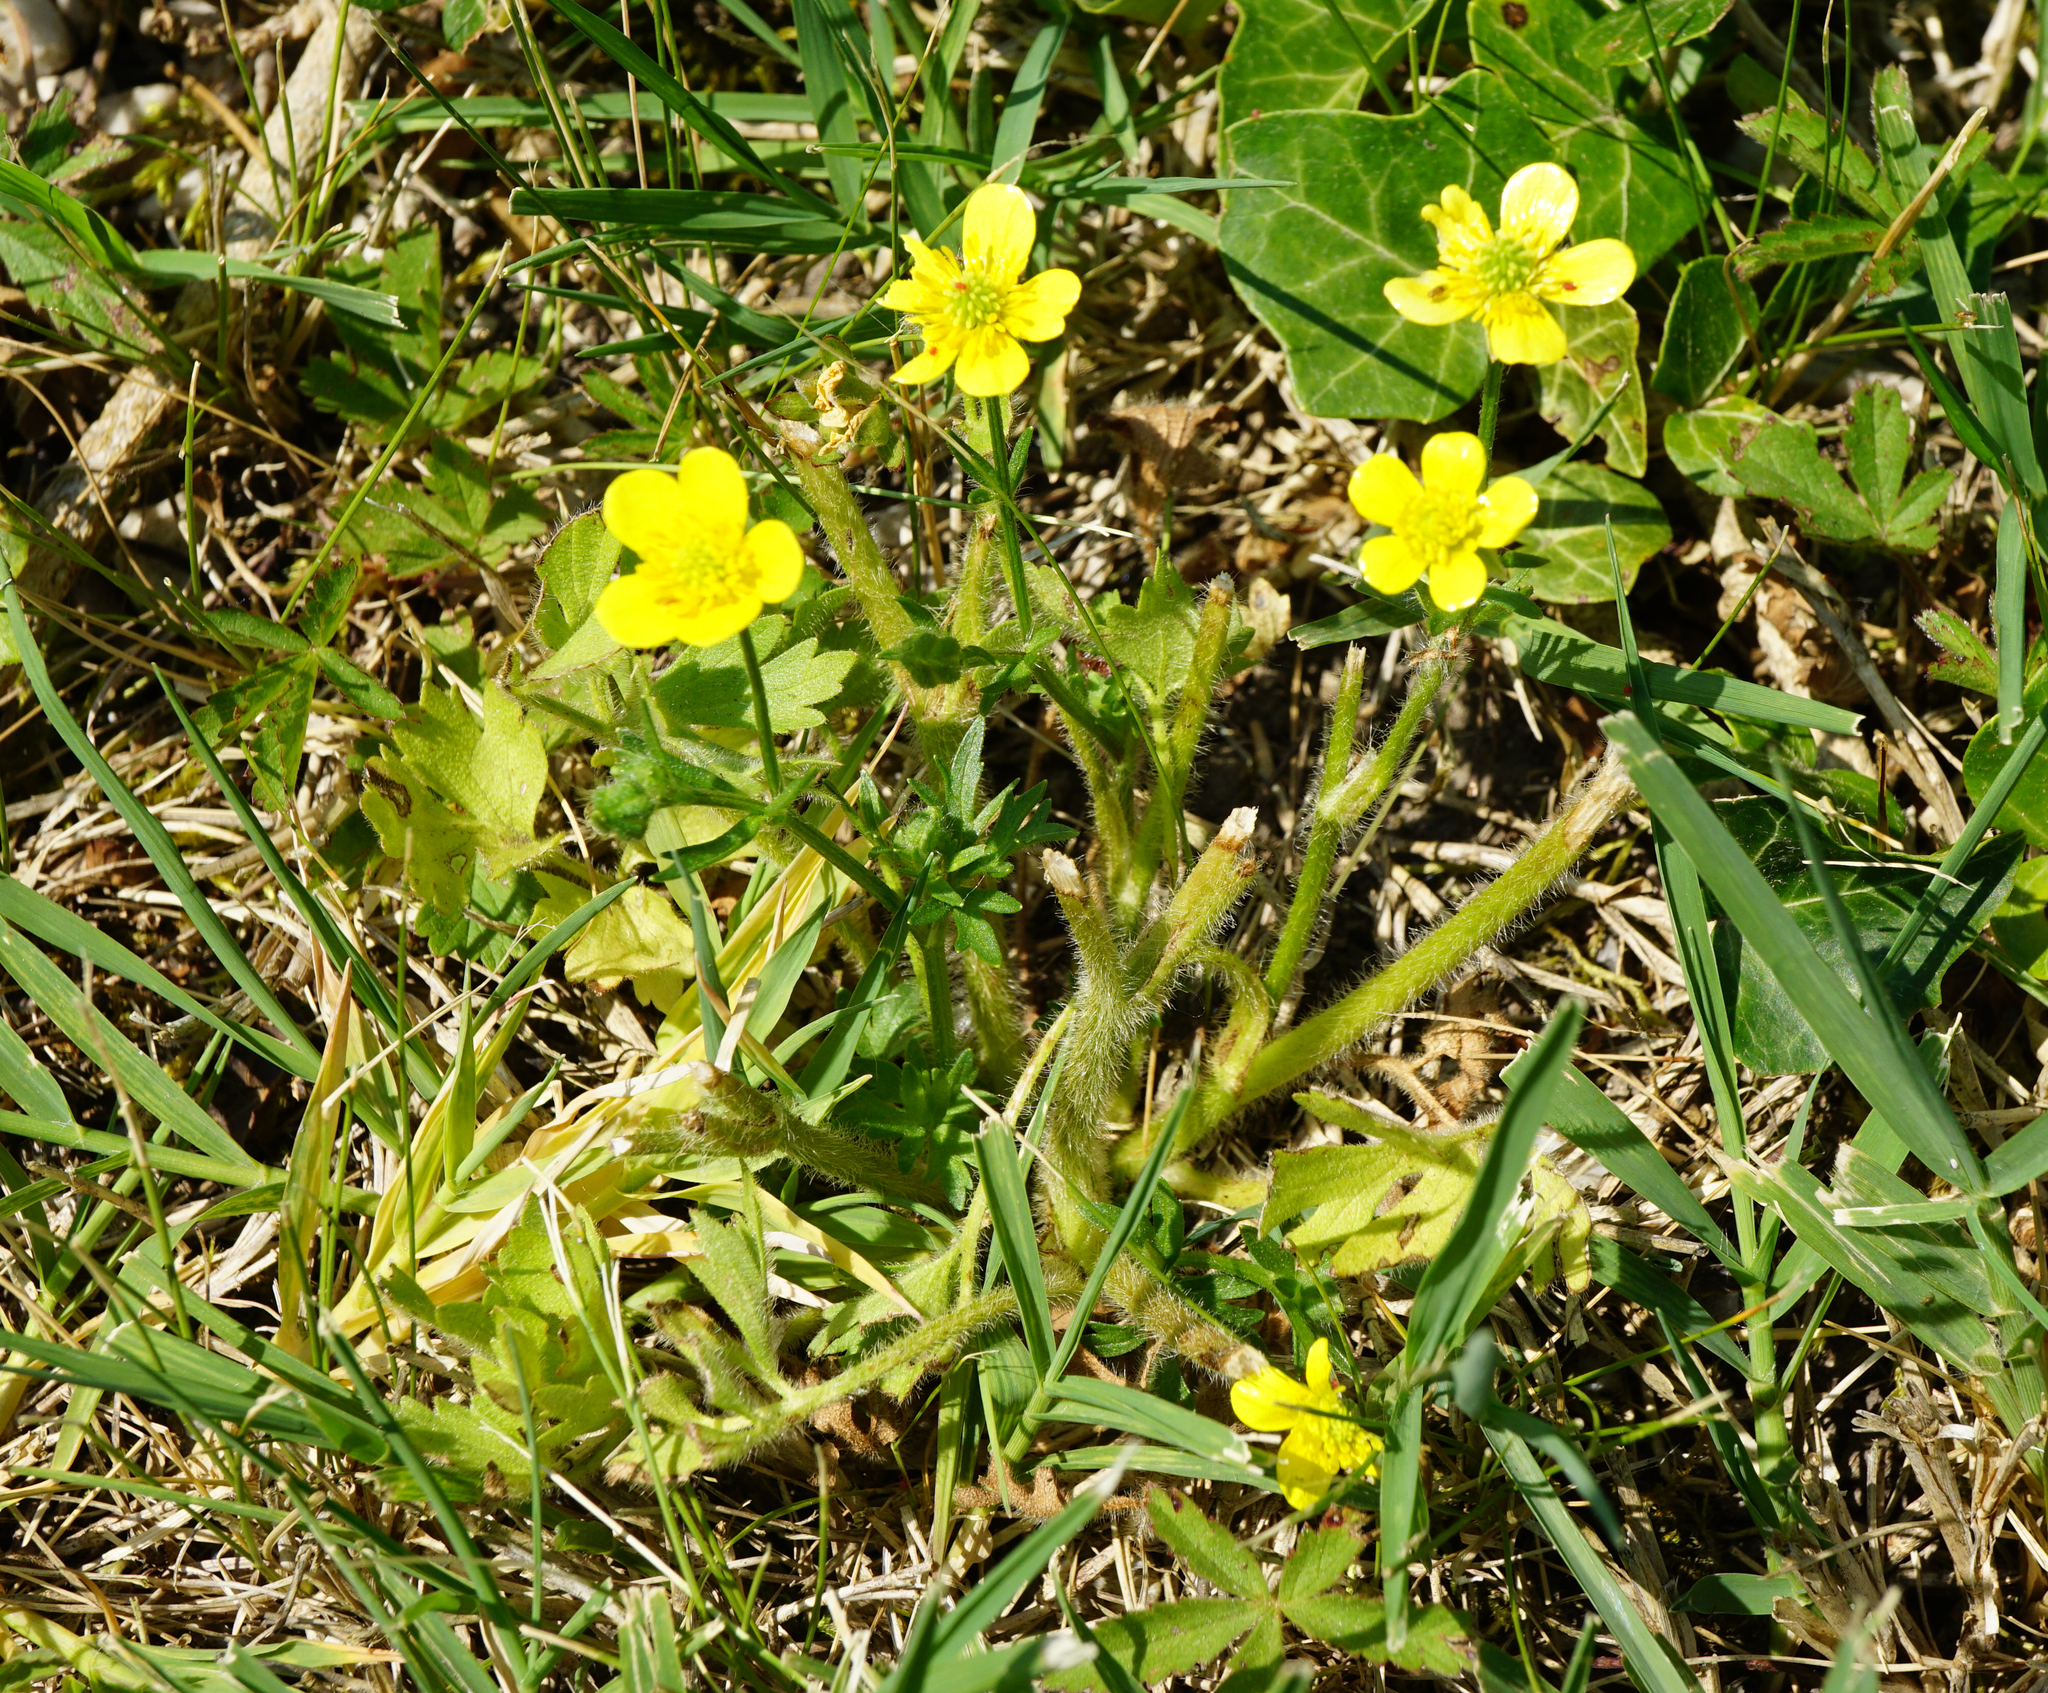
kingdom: Plantae
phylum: Tracheophyta
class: Magnoliopsida
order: Ranunculales
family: Ranunculaceae
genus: Ranunculus
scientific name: Ranunculus bulbosus
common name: Bulbous buttercup
